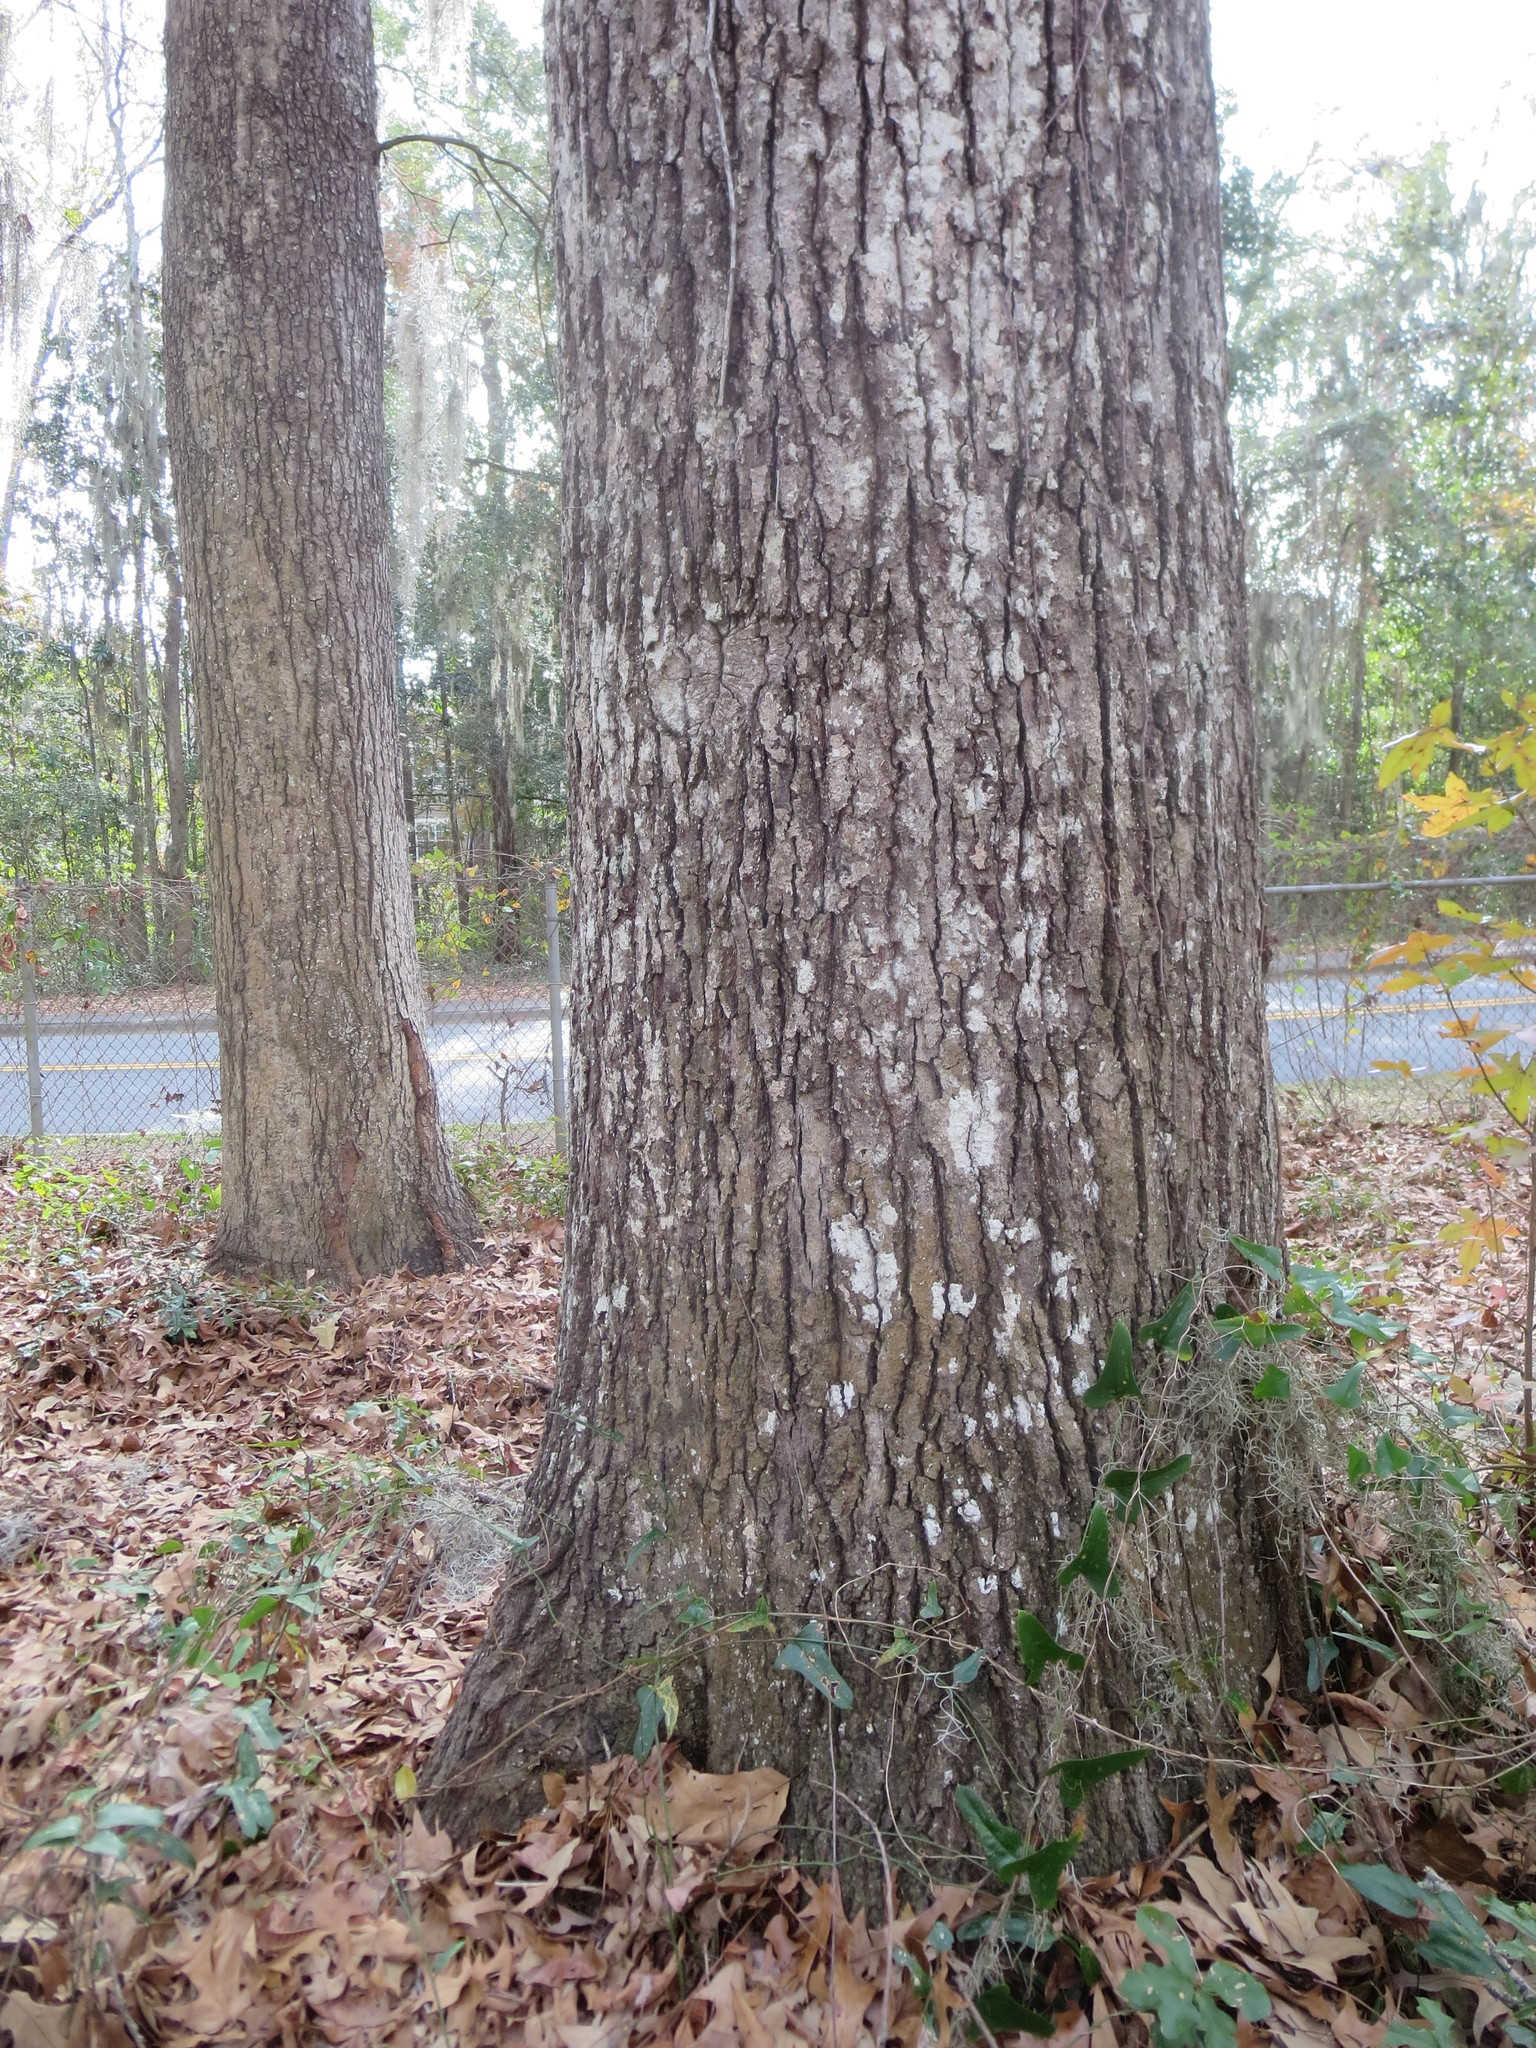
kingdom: Plantae
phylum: Tracheophyta
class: Magnoliopsida
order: Fagales
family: Fagaceae
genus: Quercus
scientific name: Quercus falcata
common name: Southern red oak
